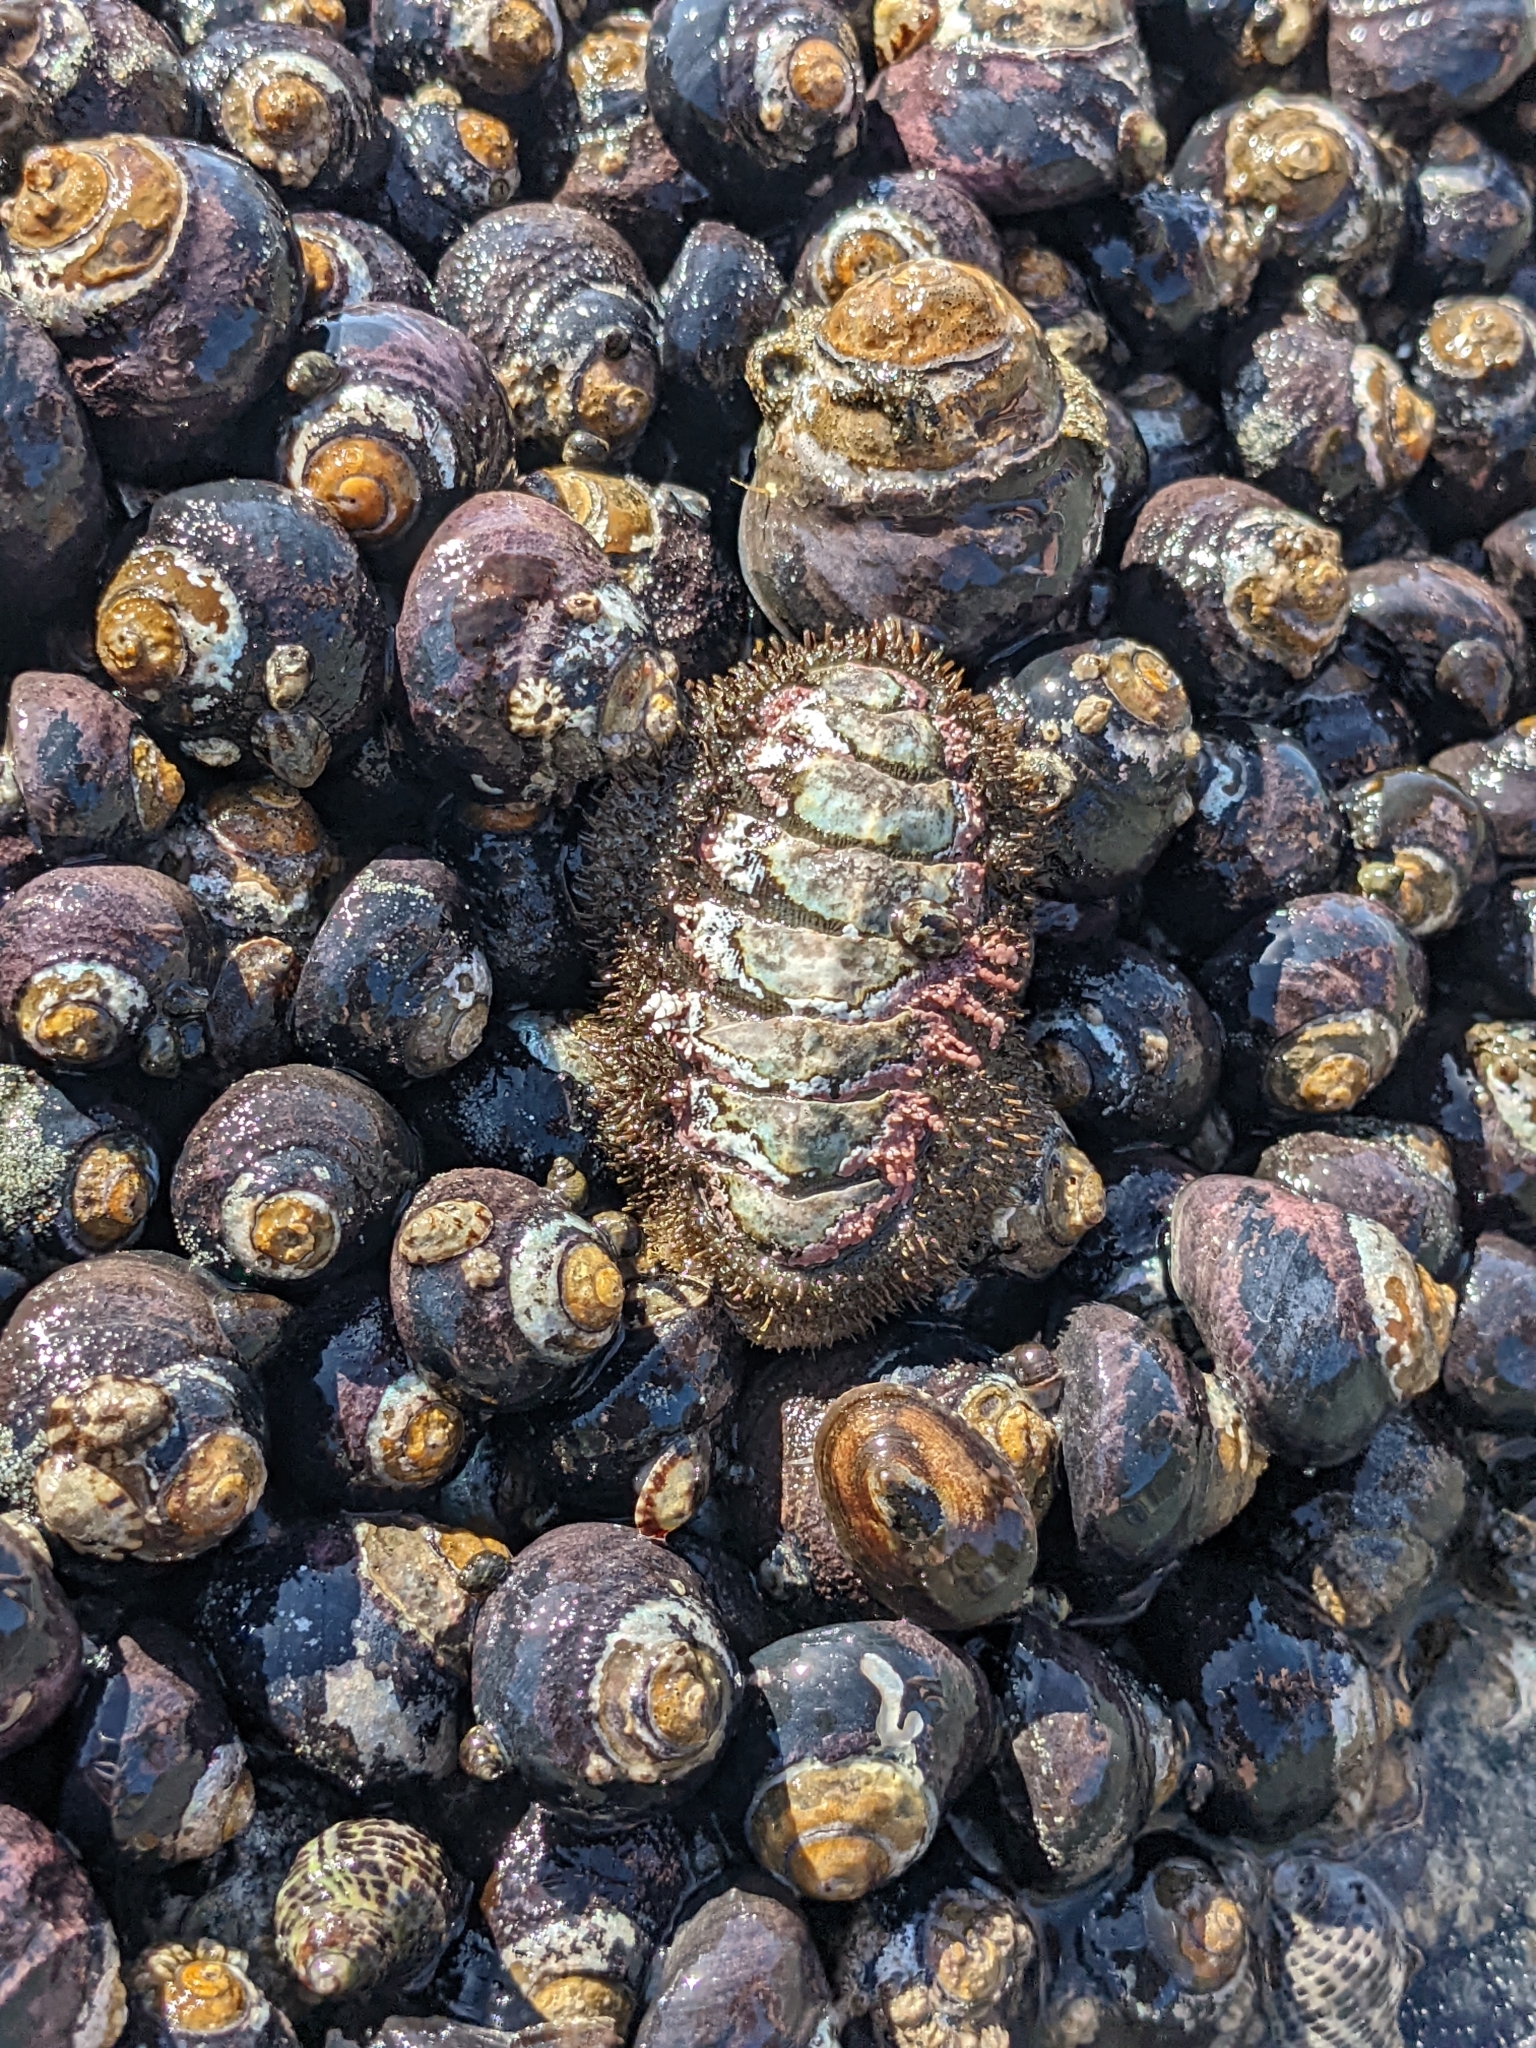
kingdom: Animalia
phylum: Mollusca
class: Polyplacophora
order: Chitonida
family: Mopaliidae
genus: Mopalia
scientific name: Mopalia muscosa
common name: Mossy chiton
